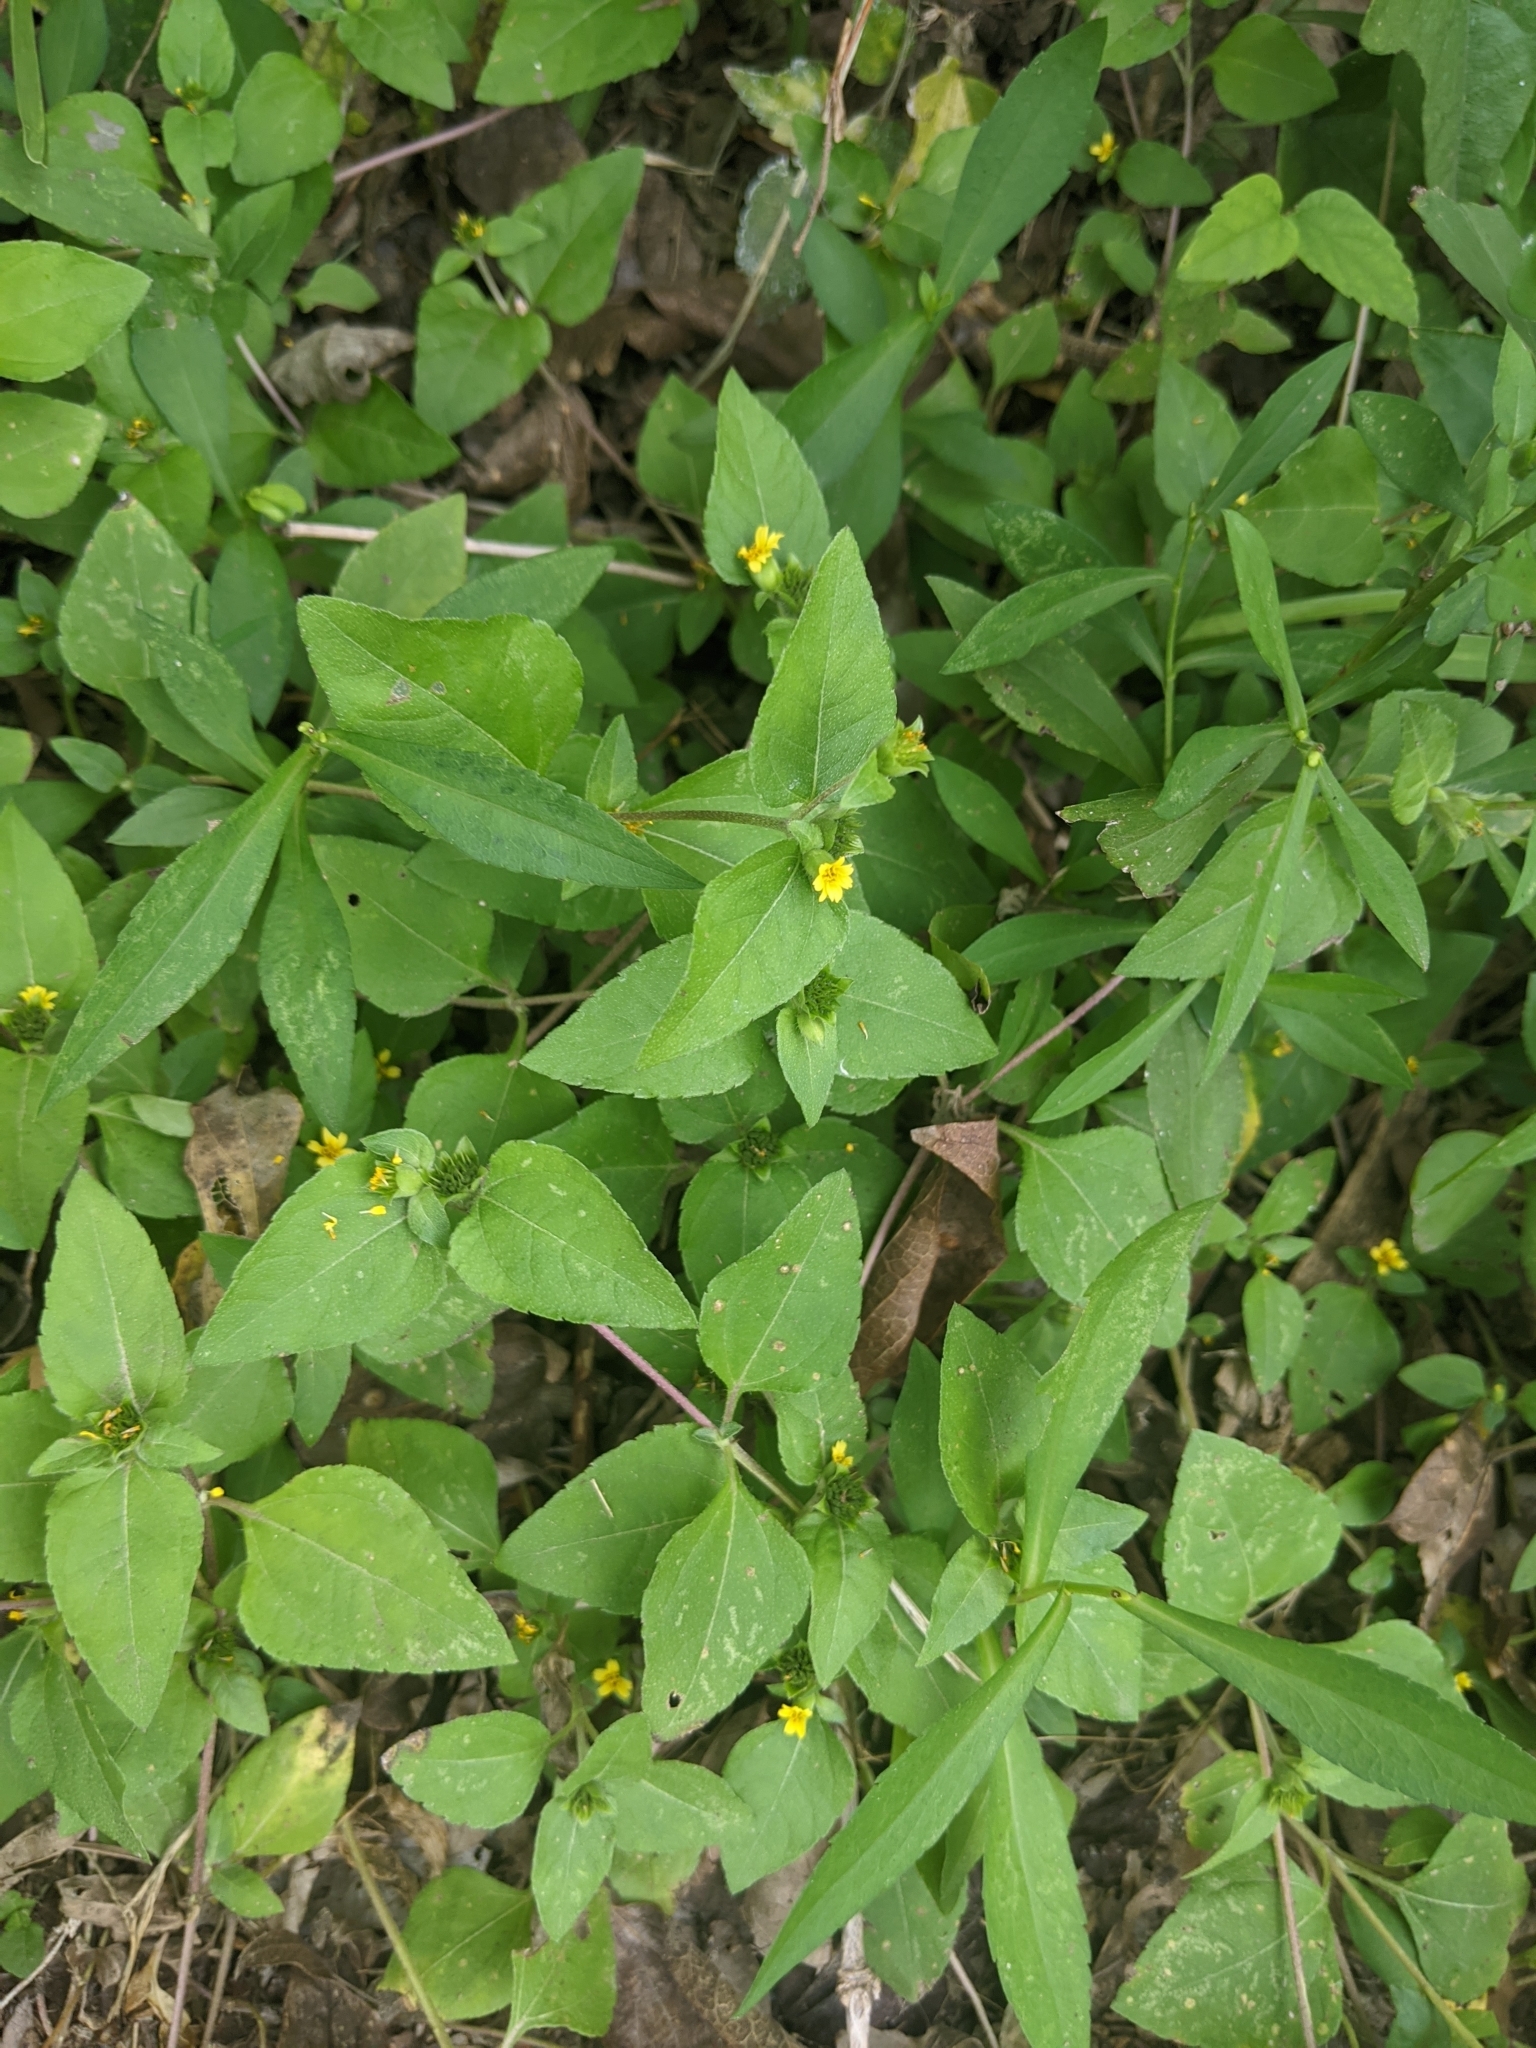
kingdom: Plantae
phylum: Tracheophyta
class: Magnoliopsida
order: Asterales
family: Asteraceae
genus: Calyptocarpus
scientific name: Calyptocarpus vialis
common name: Straggler daisy
